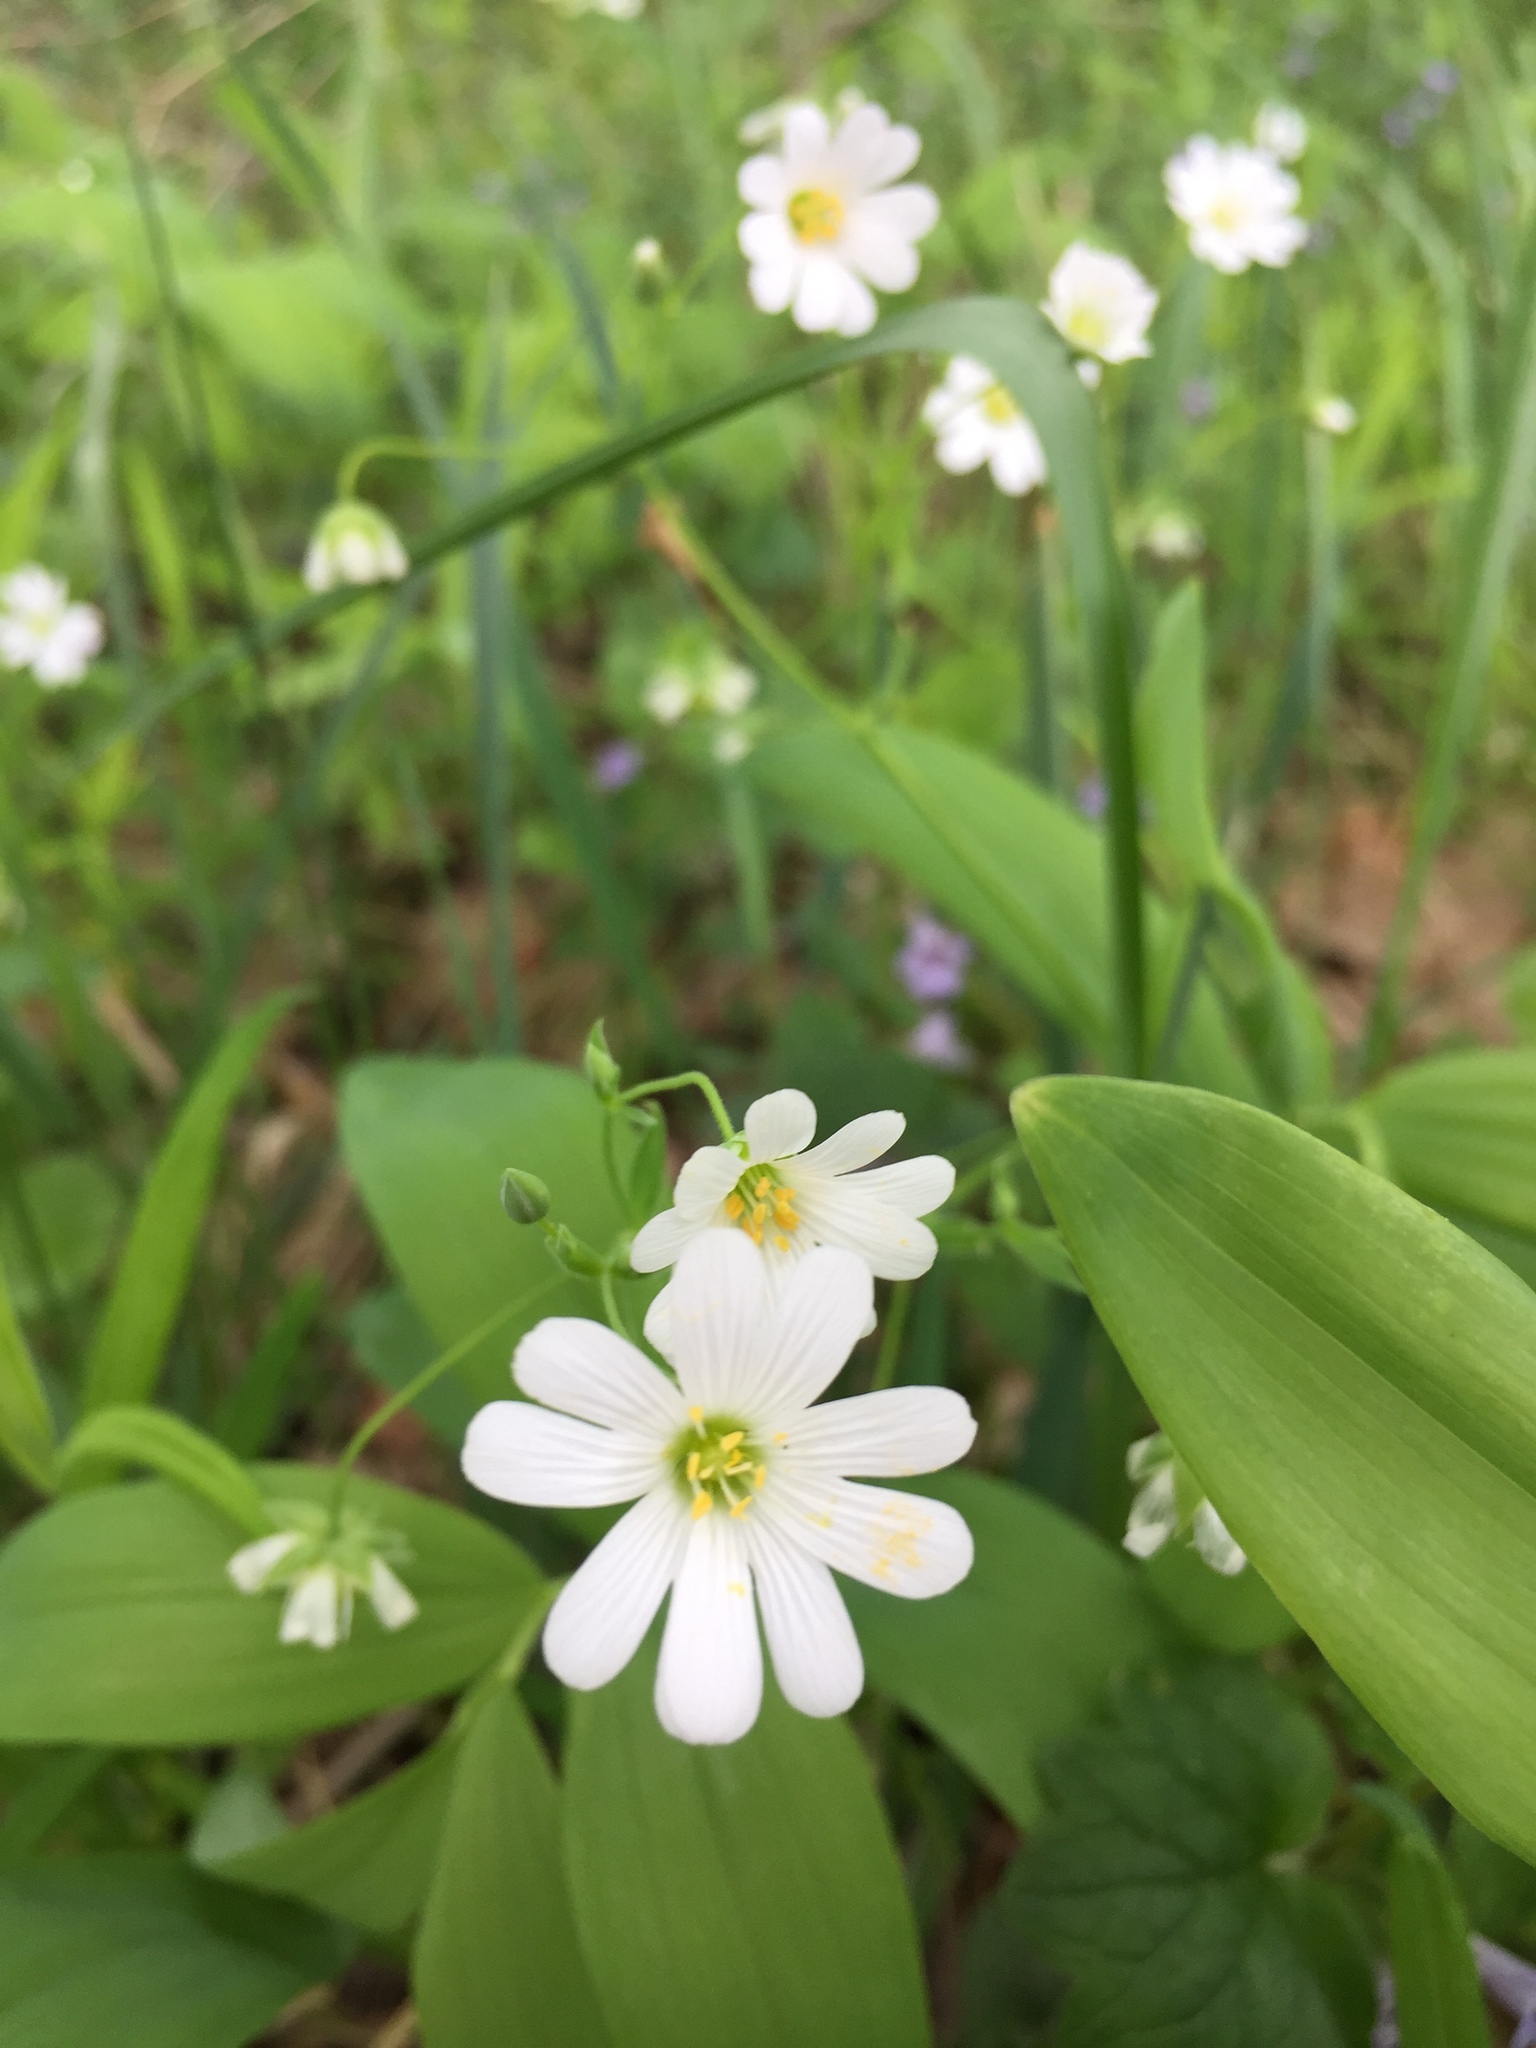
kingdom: Plantae
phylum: Tracheophyta
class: Magnoliopsida
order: Caryophyllales
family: Caryophyllaceae
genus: Rabelera
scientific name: Rabelera holostea
